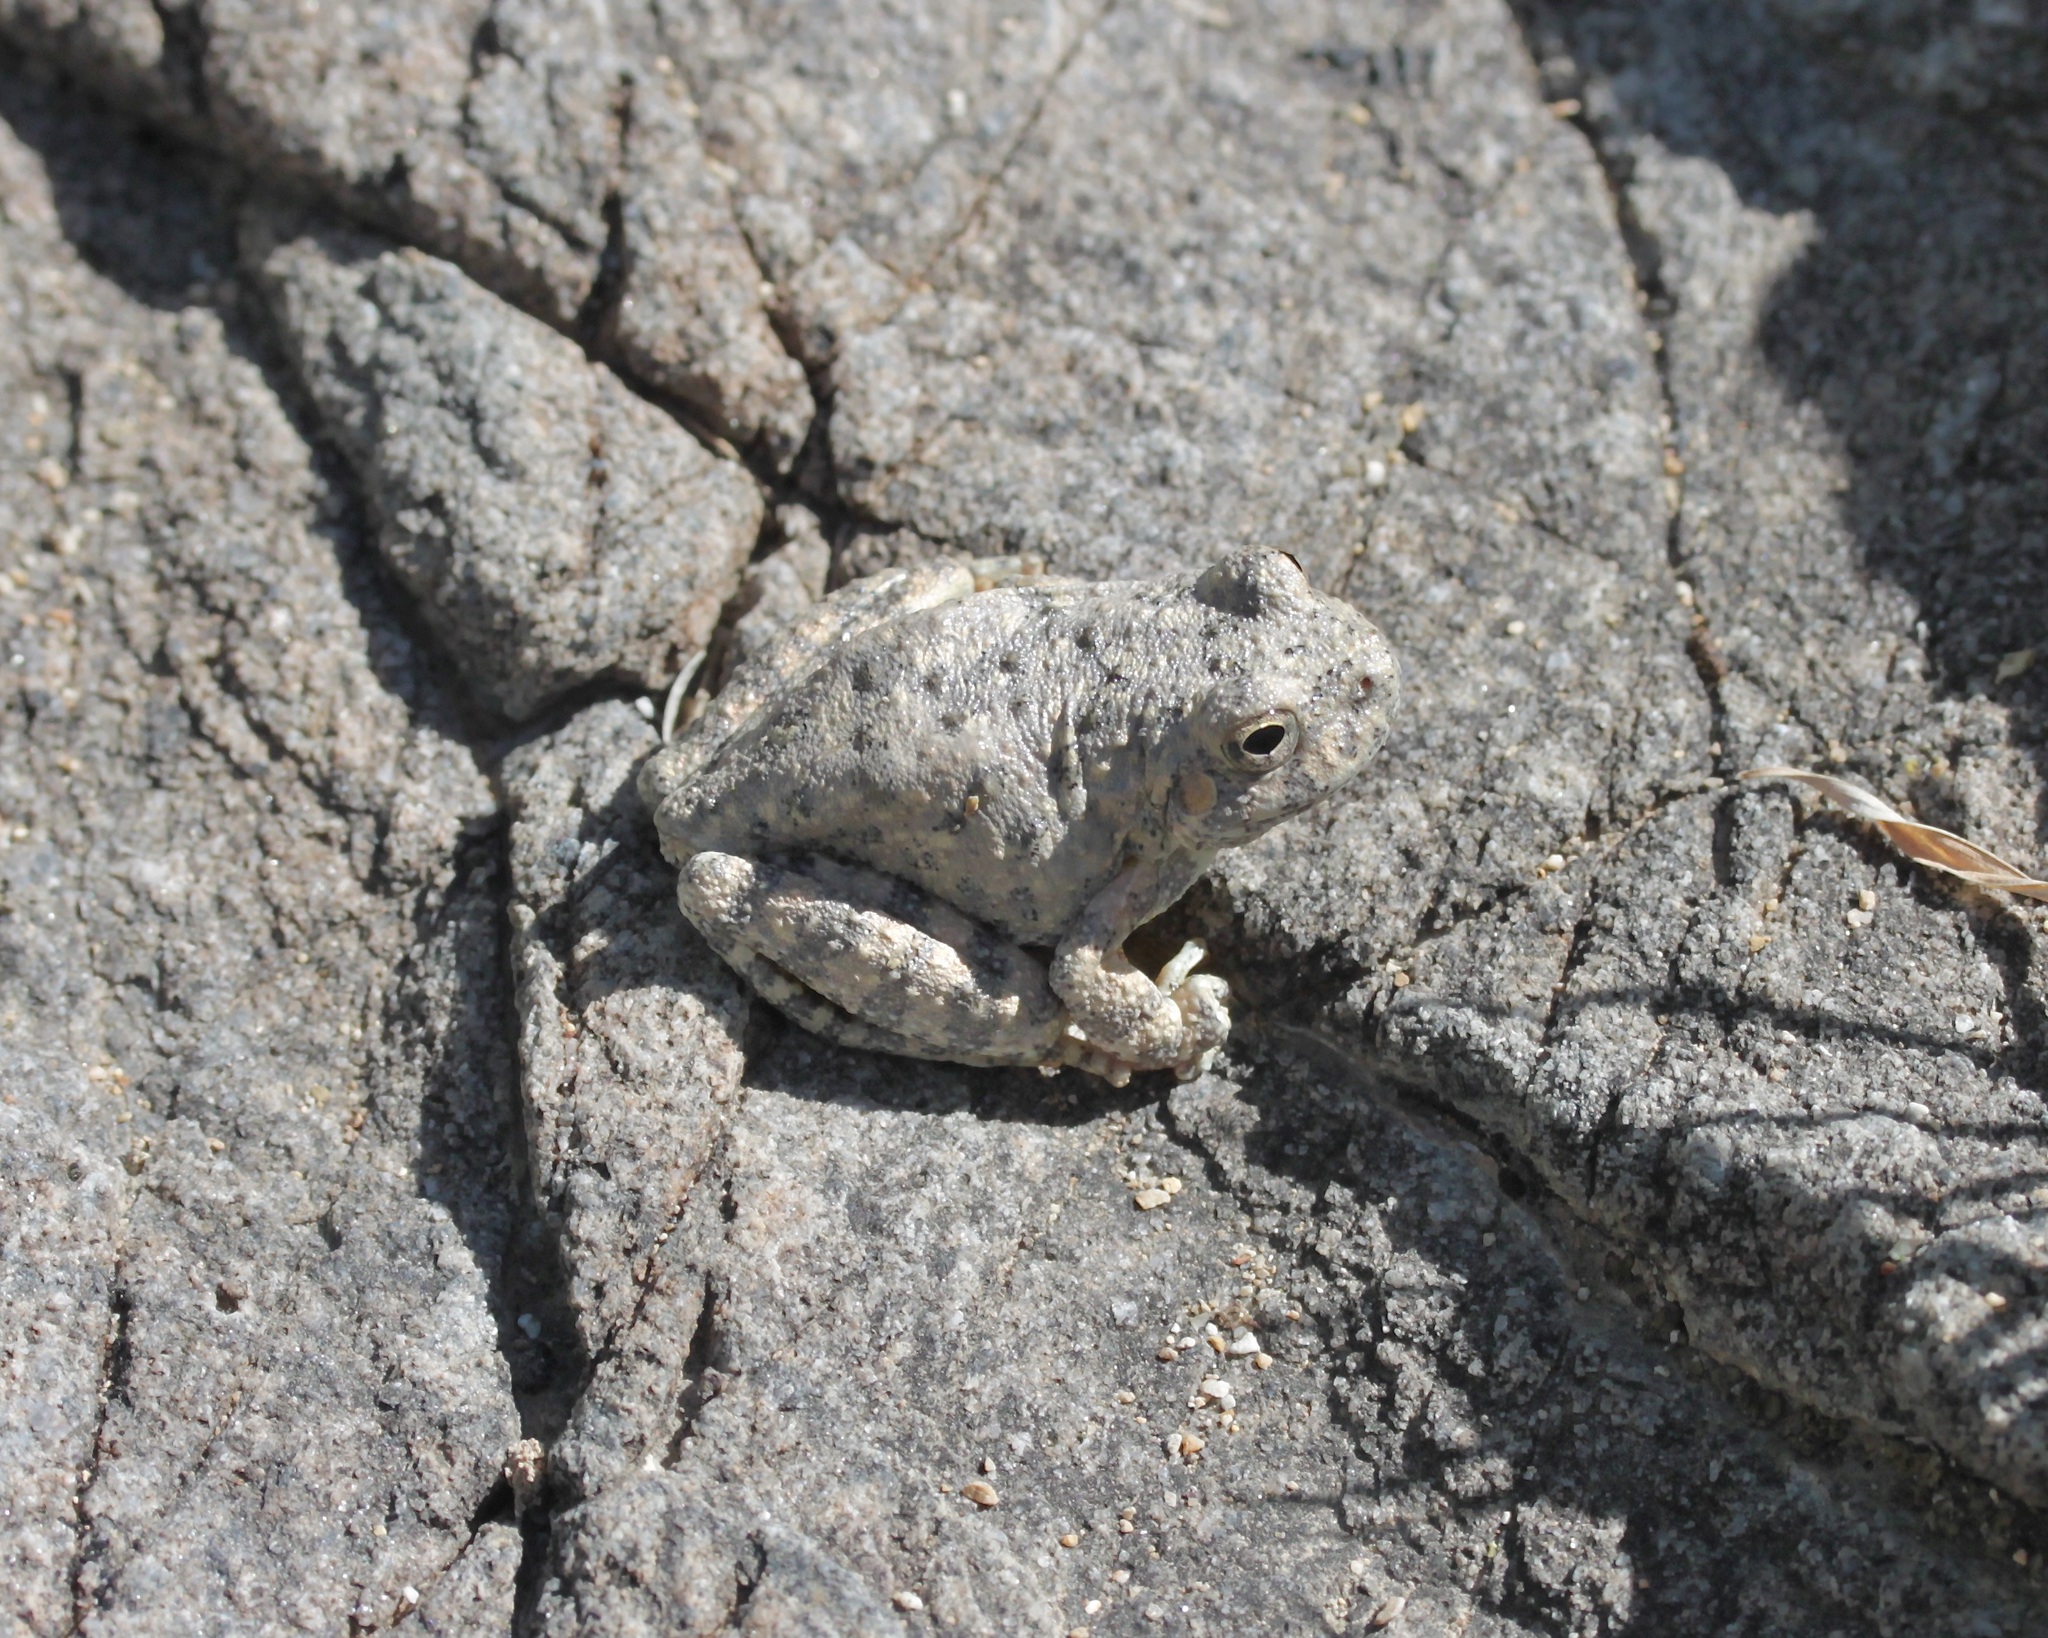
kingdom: Animalia
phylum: Chordata
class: Amphibia
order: Anura
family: Hylidae
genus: Dryophytes
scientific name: Dryophytes arenicolor
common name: Canyon treefrog
